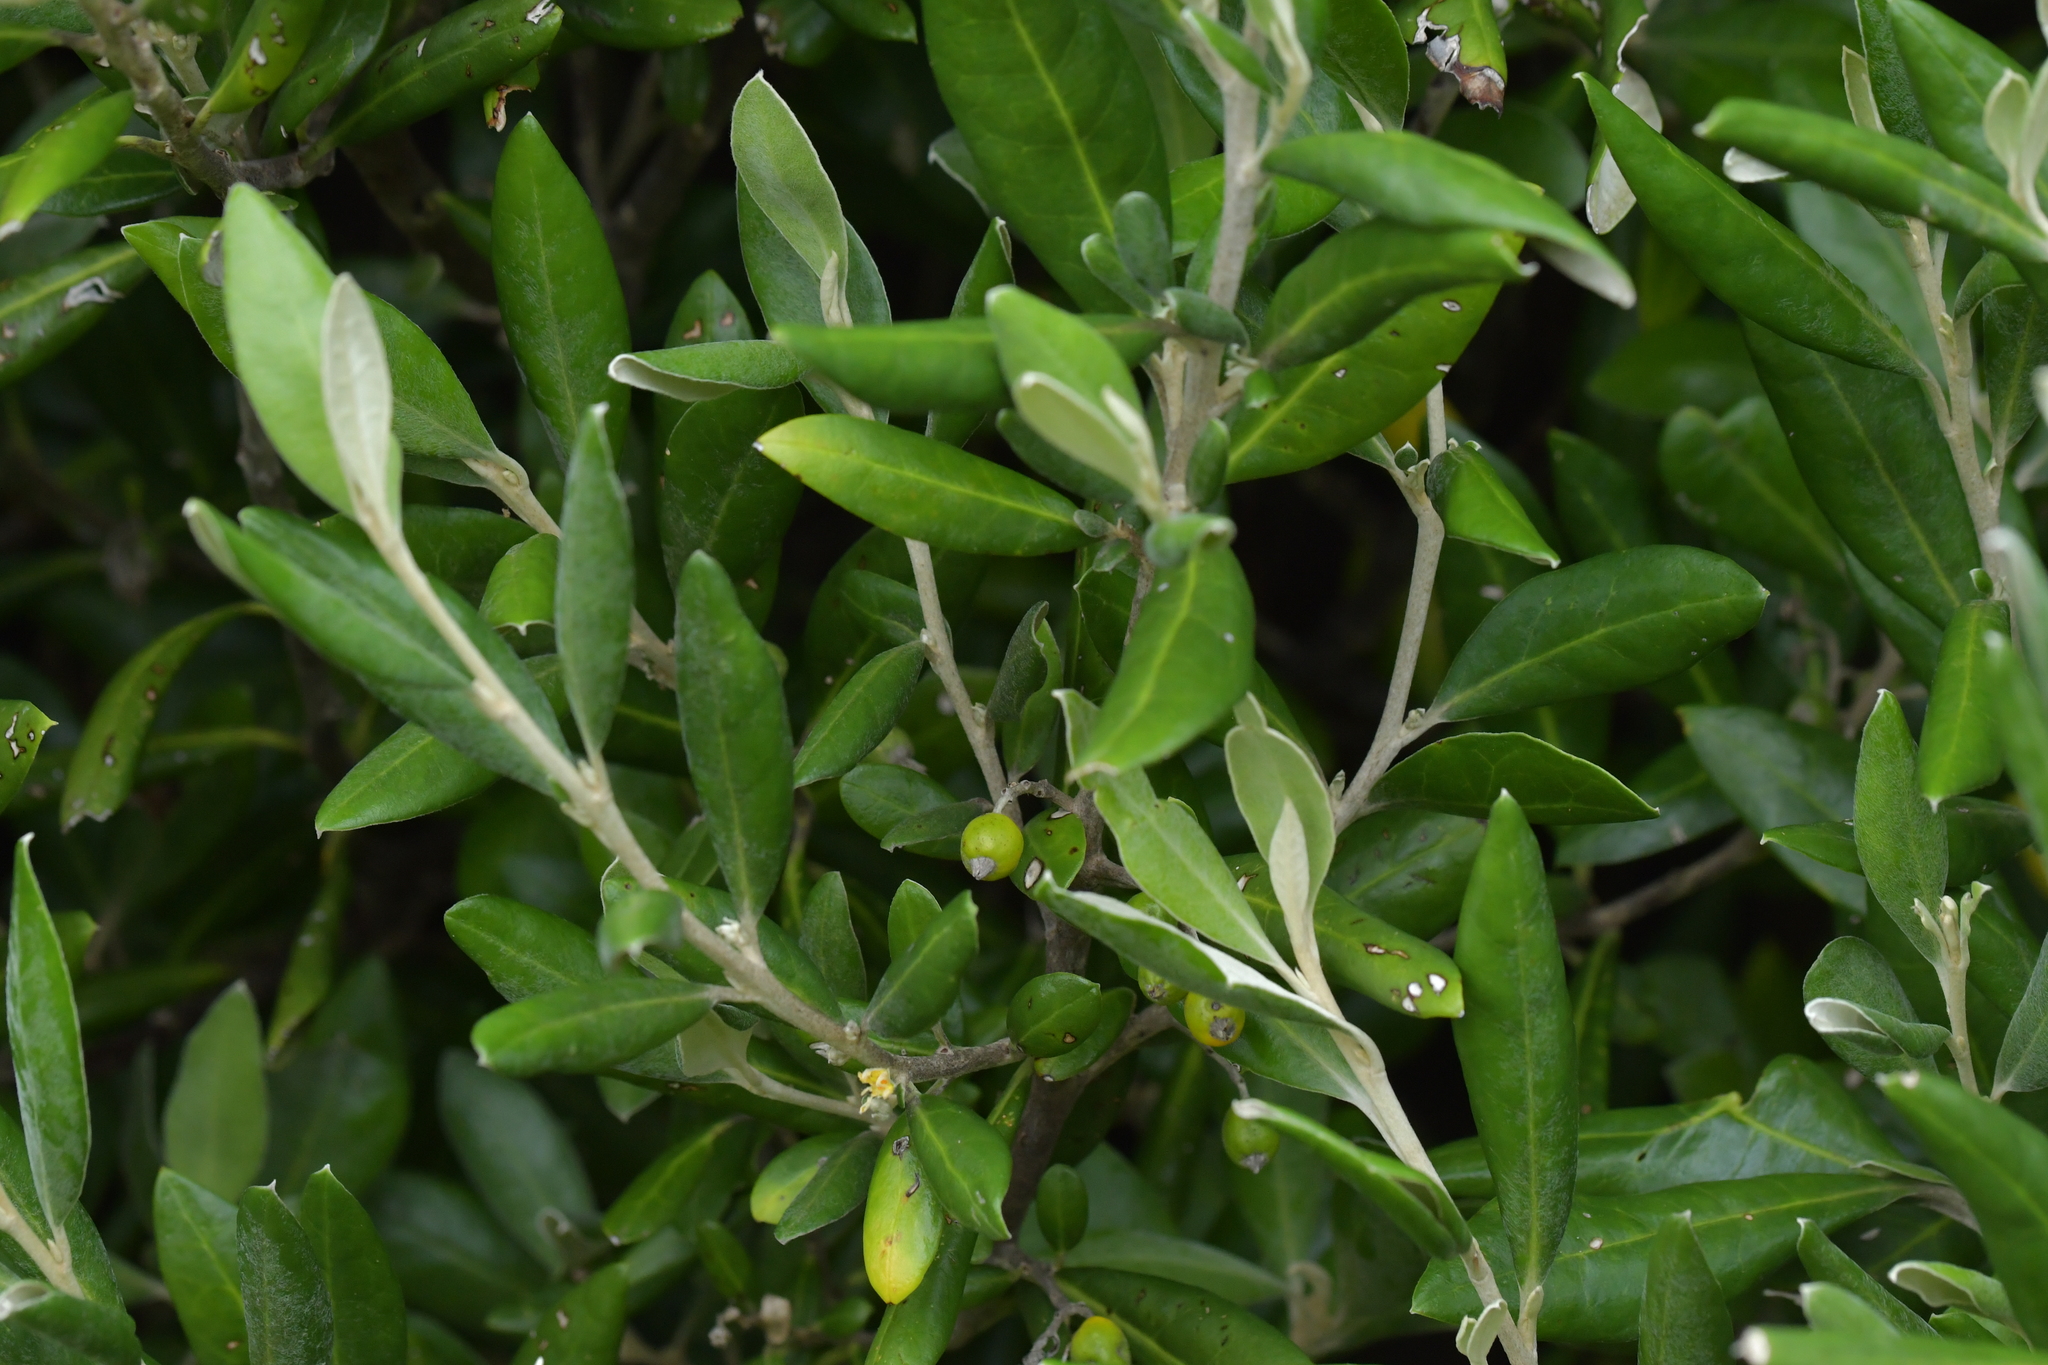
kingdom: Plantae
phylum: Tracheophyta
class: Magnoliopsida
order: Asterales
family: Argophyllaceae
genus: Corokia
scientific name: Corokia macrocarpa
